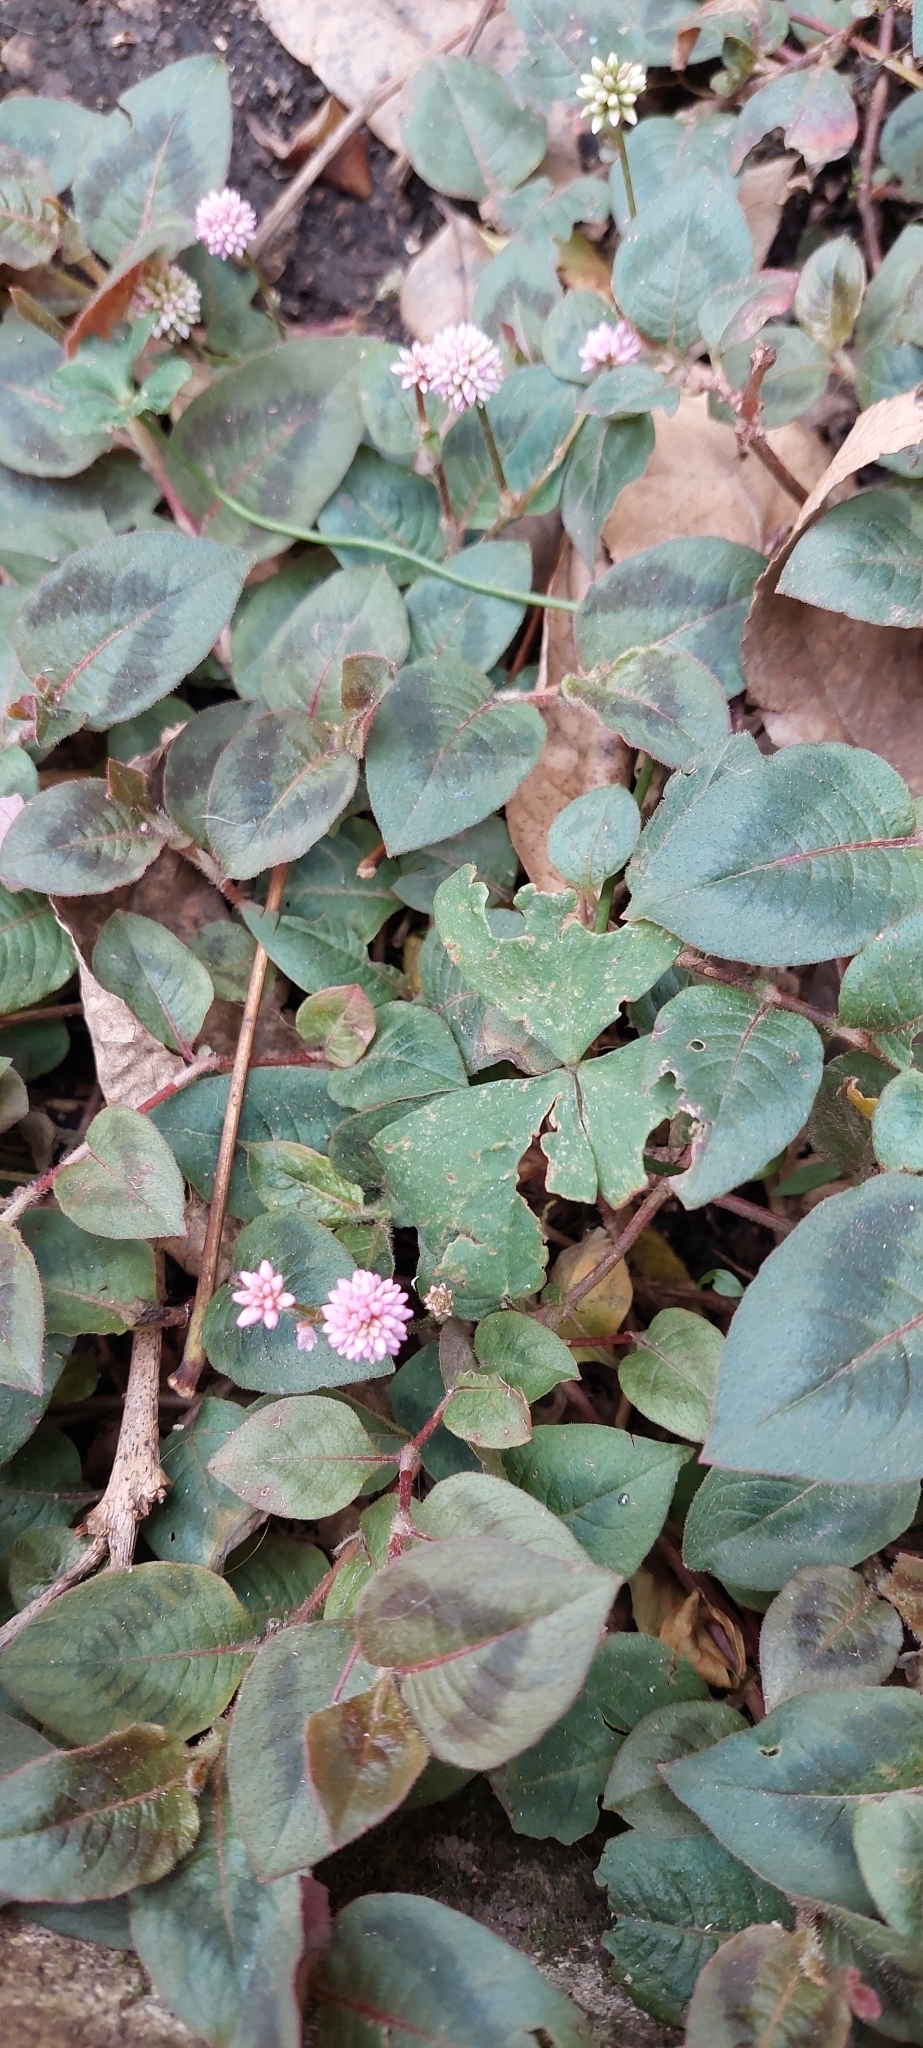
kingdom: Plantae
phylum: Tracheophyta
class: Magnoliopsida
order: Caryophyllales
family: Polygonaceae
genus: Persicaria
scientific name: Persicaria capitata
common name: Pinkhead smartweed
